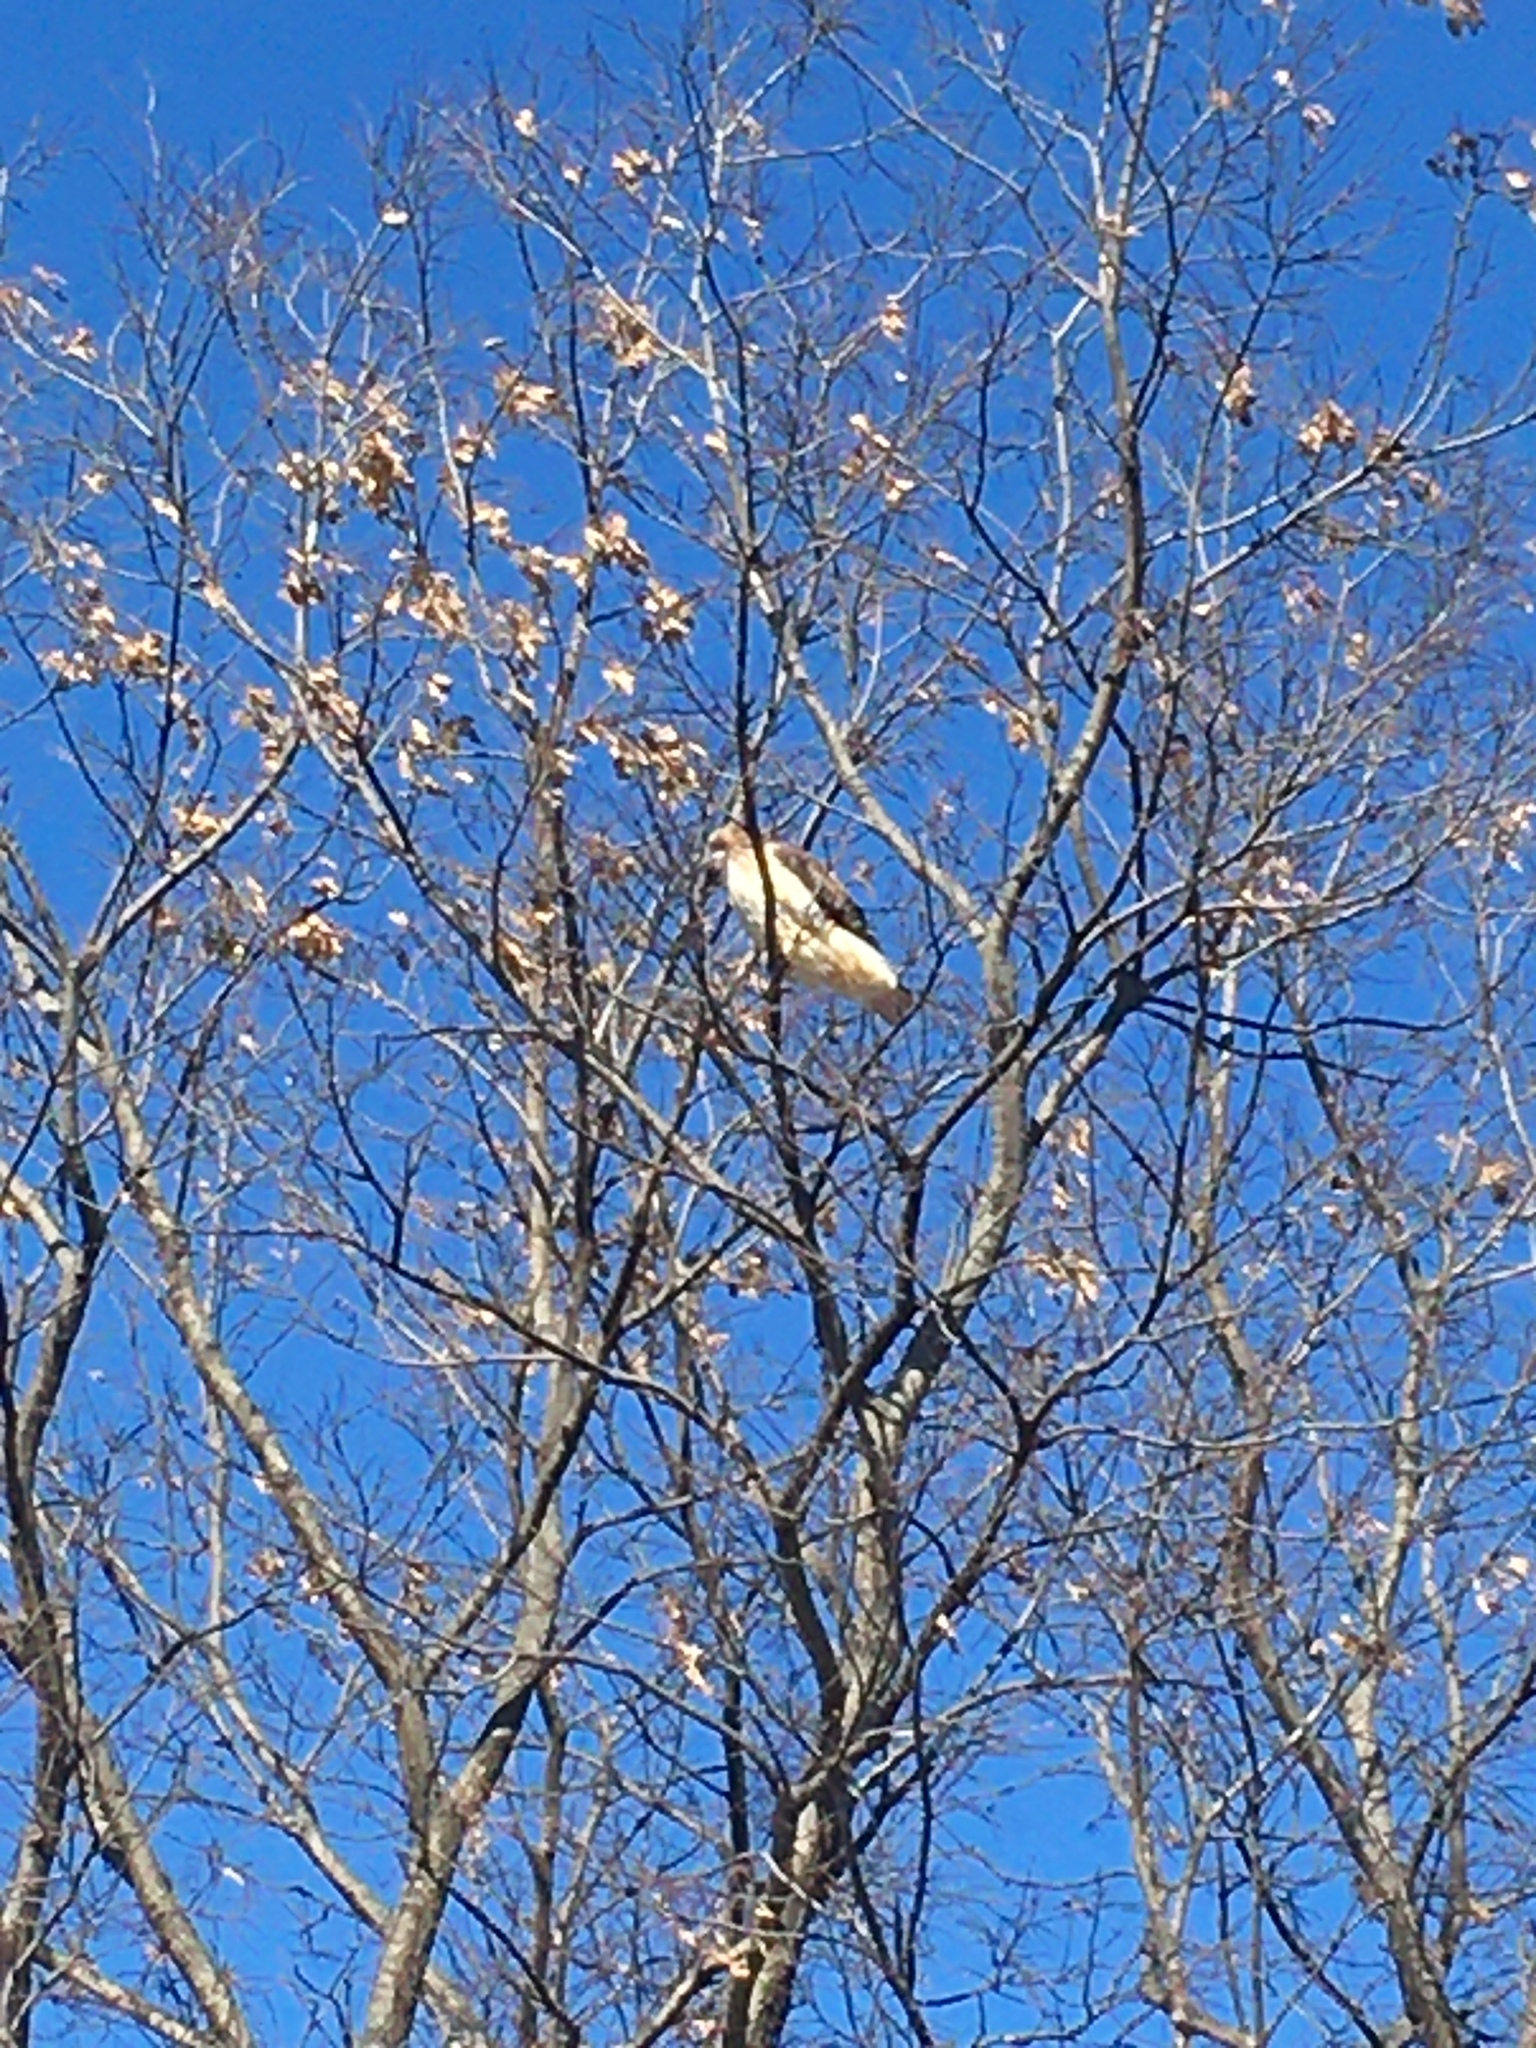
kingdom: Animalia
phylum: Chordata
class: Aves
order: Accipitriformes
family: Accipitridae
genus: Buteo
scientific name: Buteo jamaicensis
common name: Red-tailed hawk
